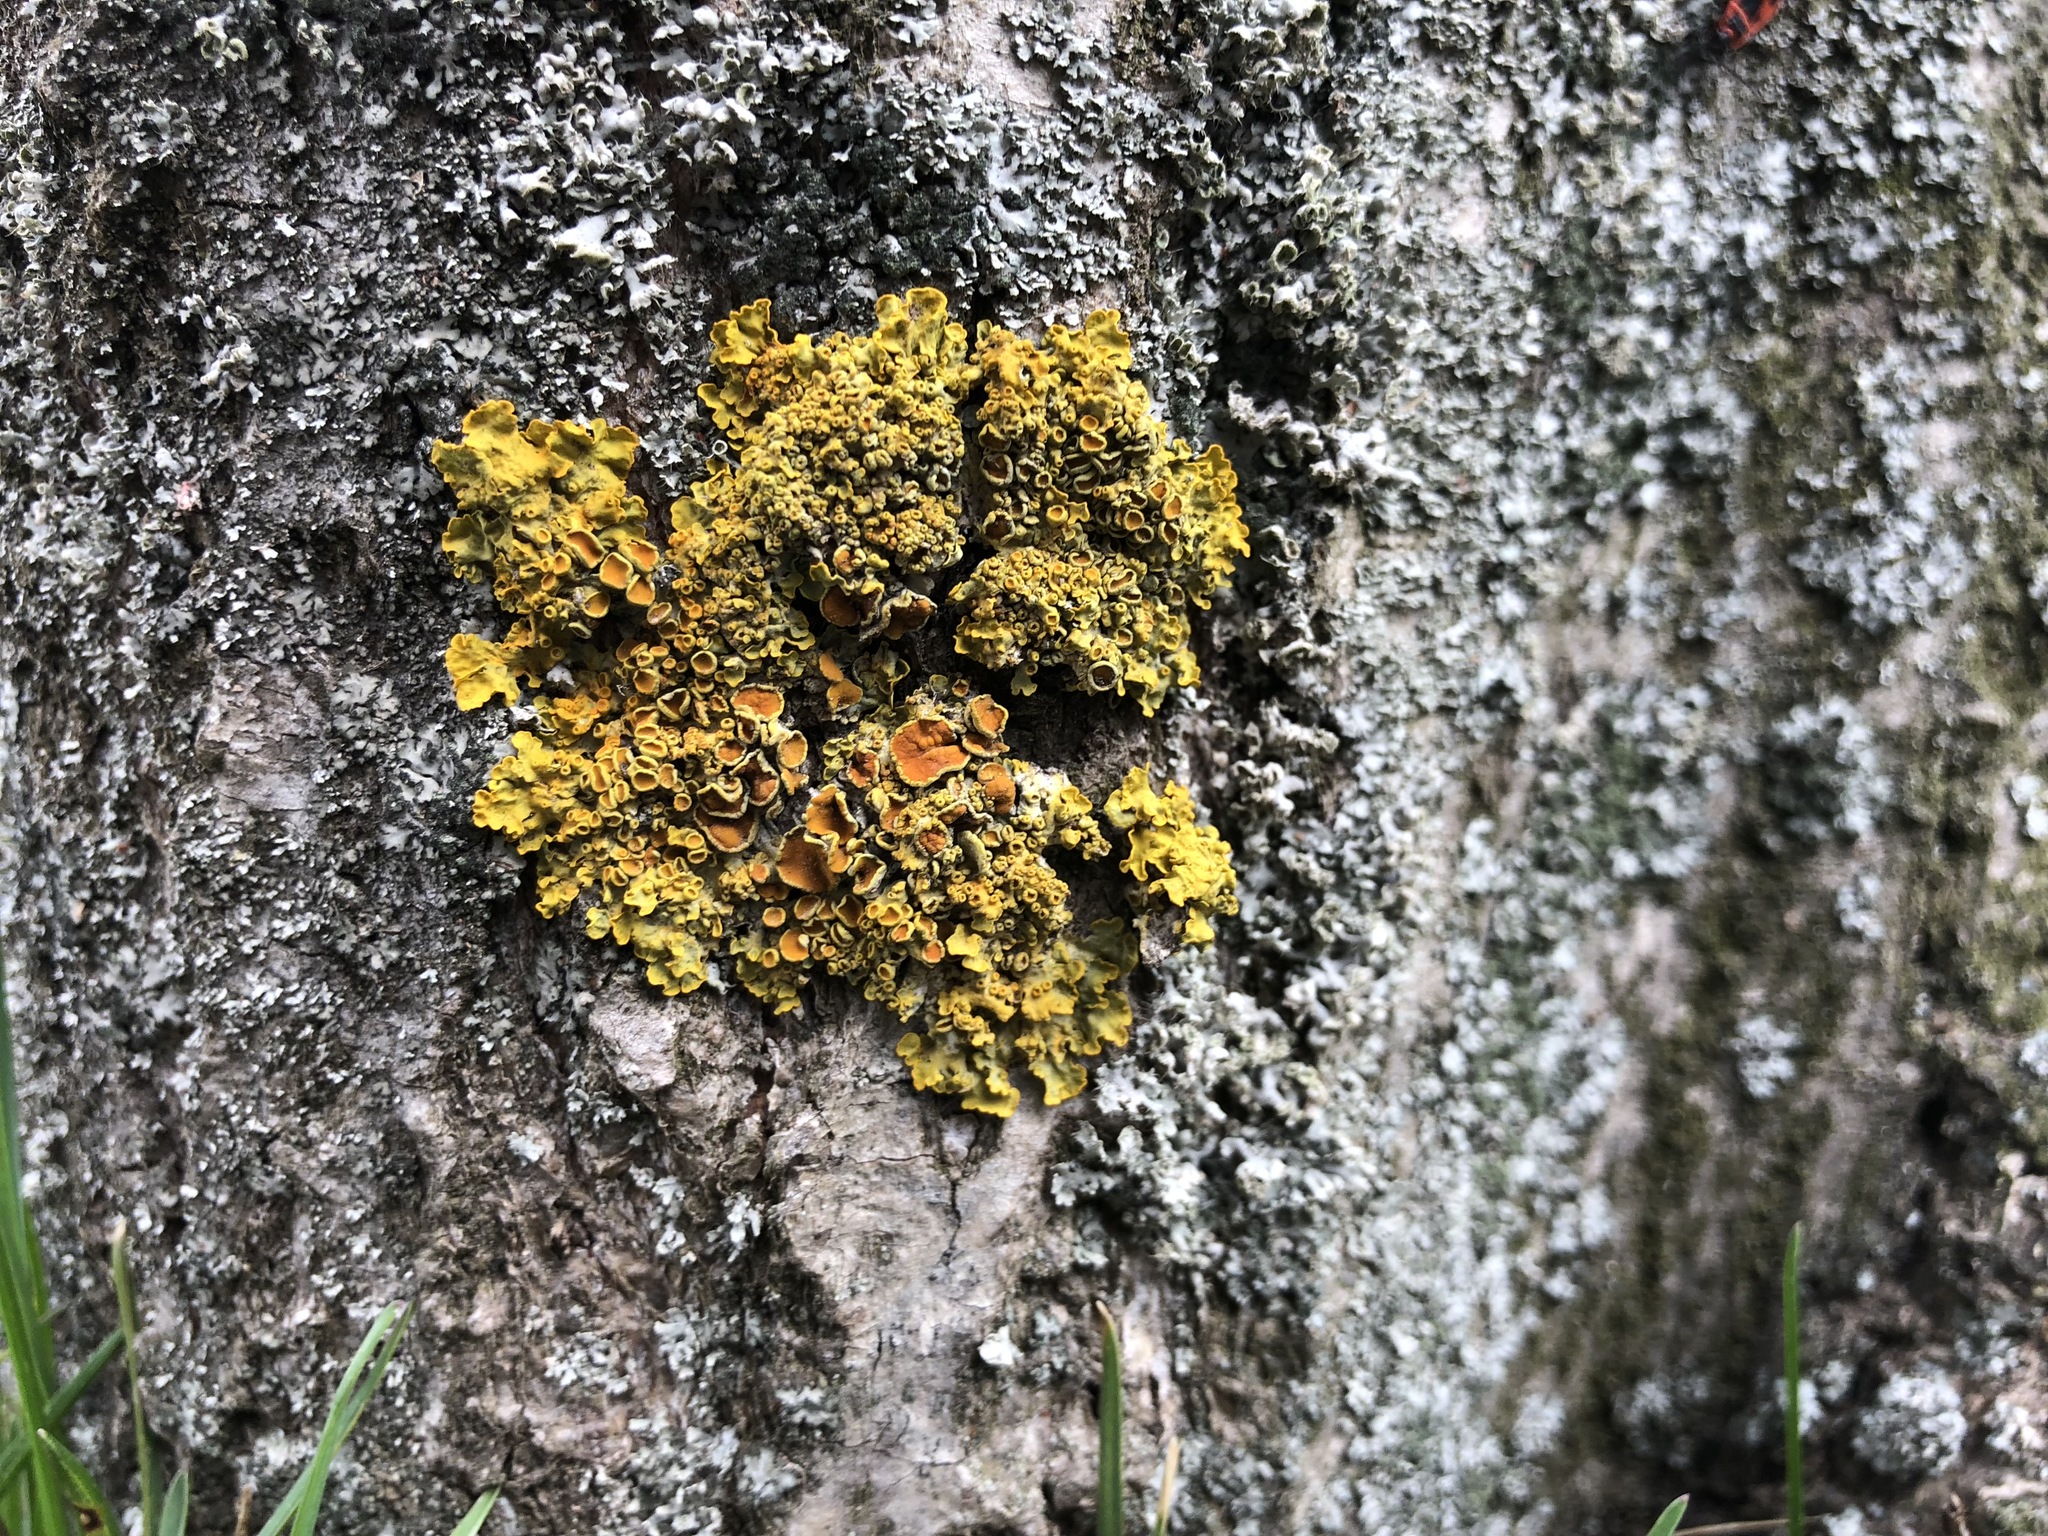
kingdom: Fungi
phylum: Ascomycota
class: Lecanoromycetes
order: Teloschistales
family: Teloschistaceae
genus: Xanthoria
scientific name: Xanthoria parietina
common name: Common orange lichen
